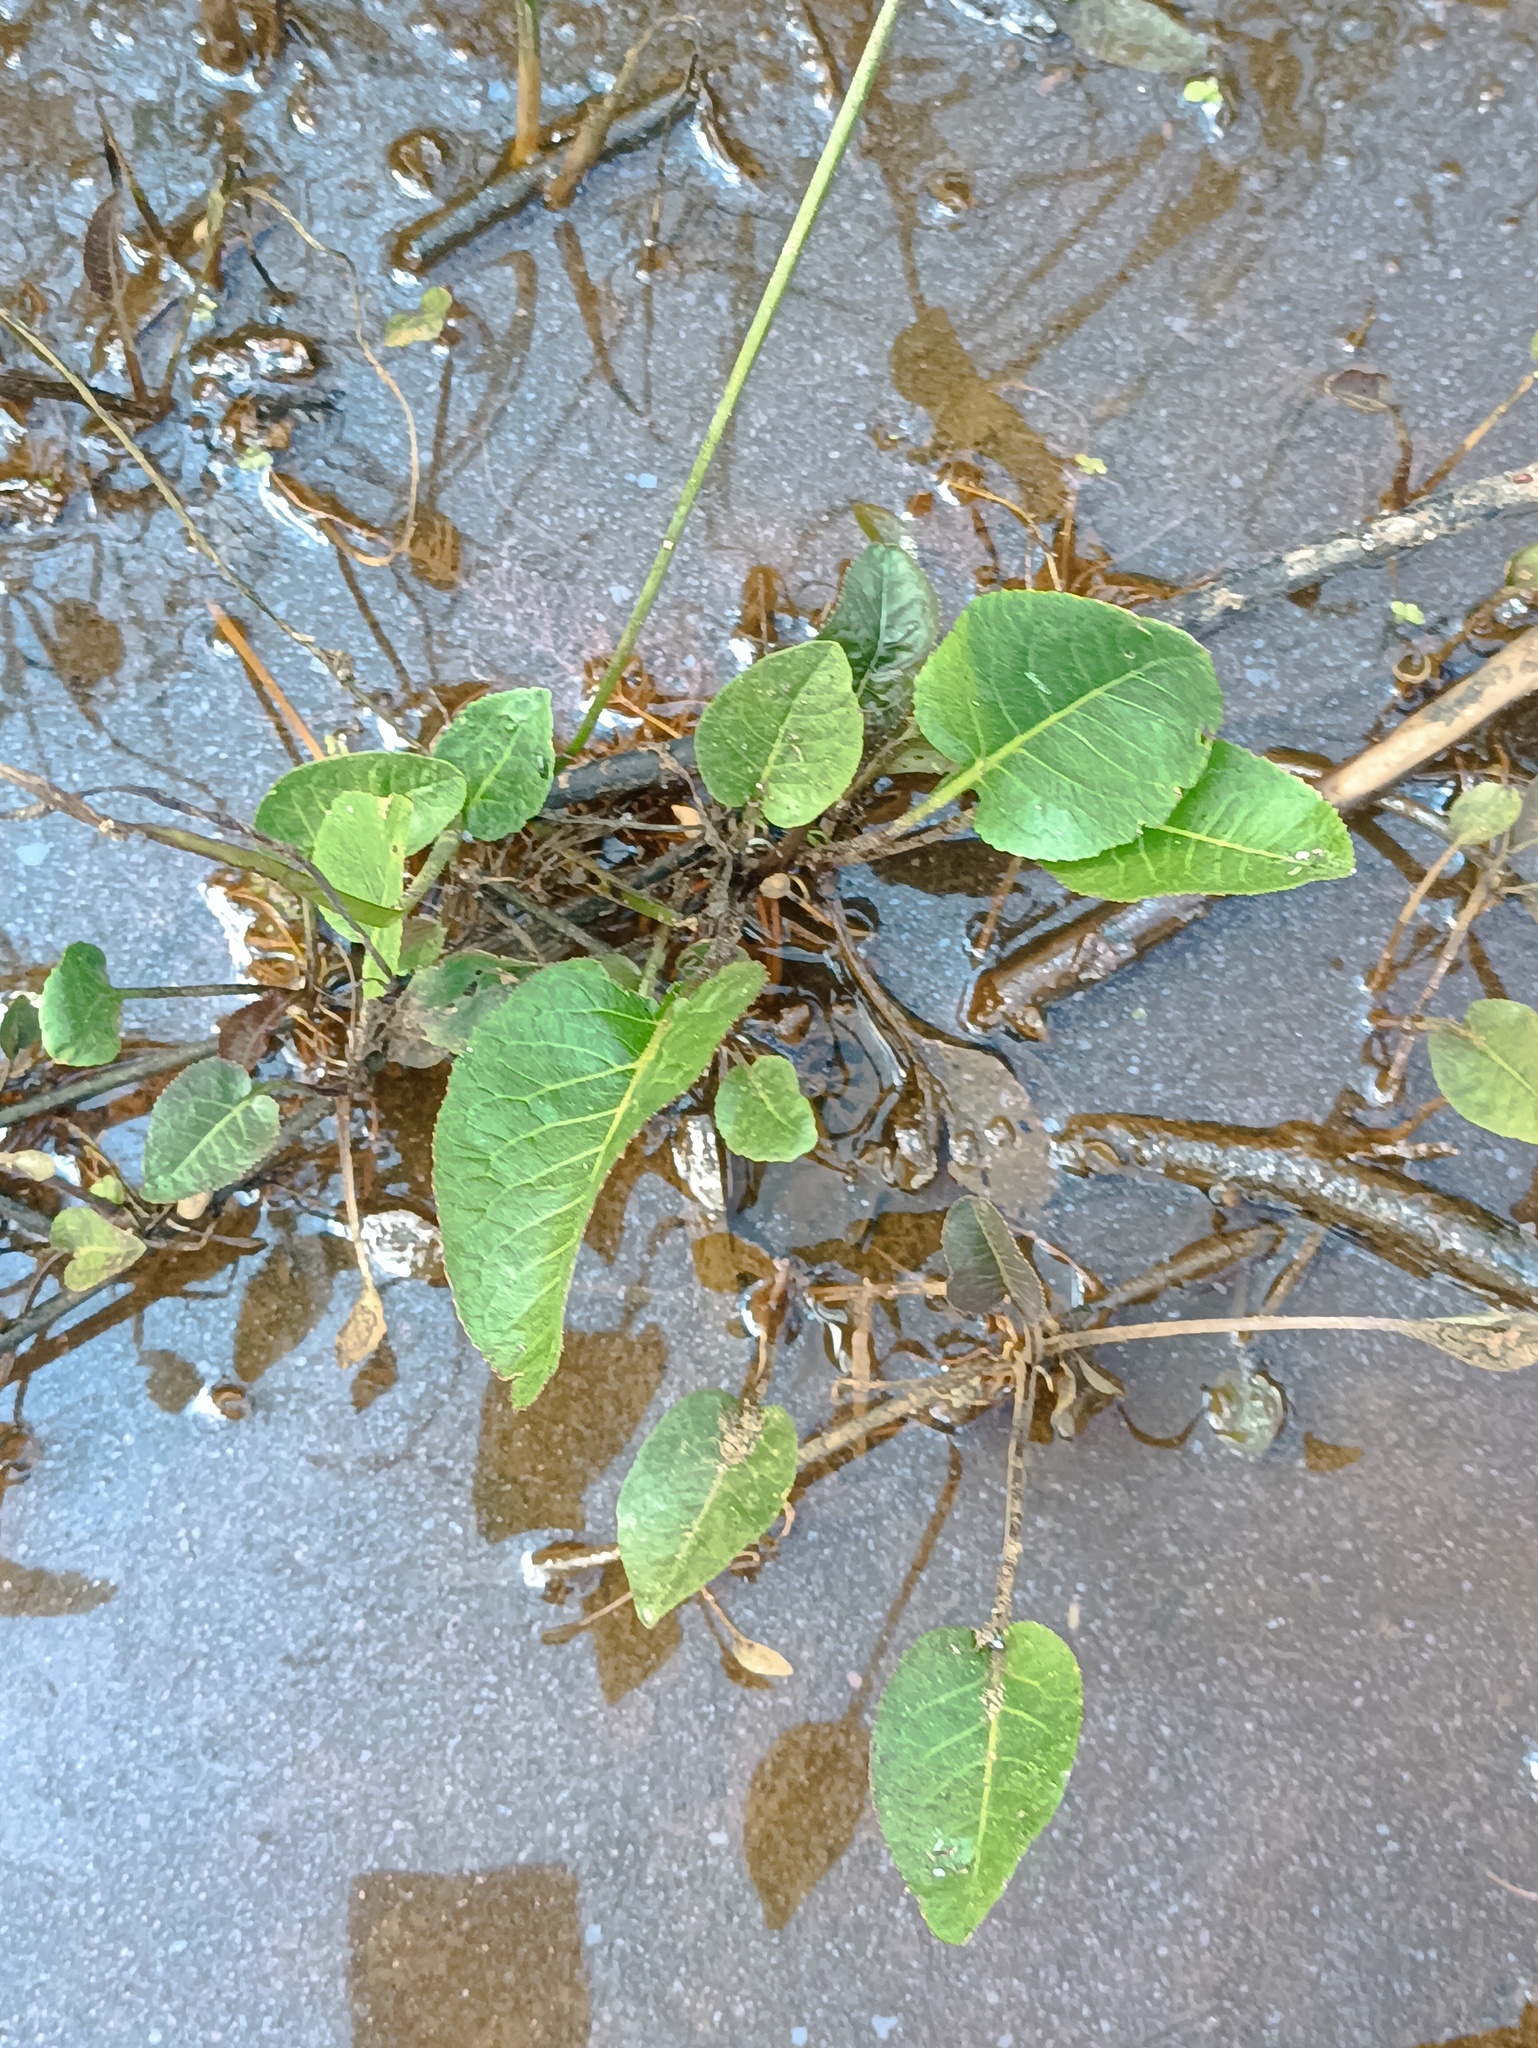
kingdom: Plantae
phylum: Tracheophyta
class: Magnoliopsida
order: Brassicales
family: Brassicaceae
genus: Rorippa
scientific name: Rorippa amphibia
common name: Great yellow-cress
